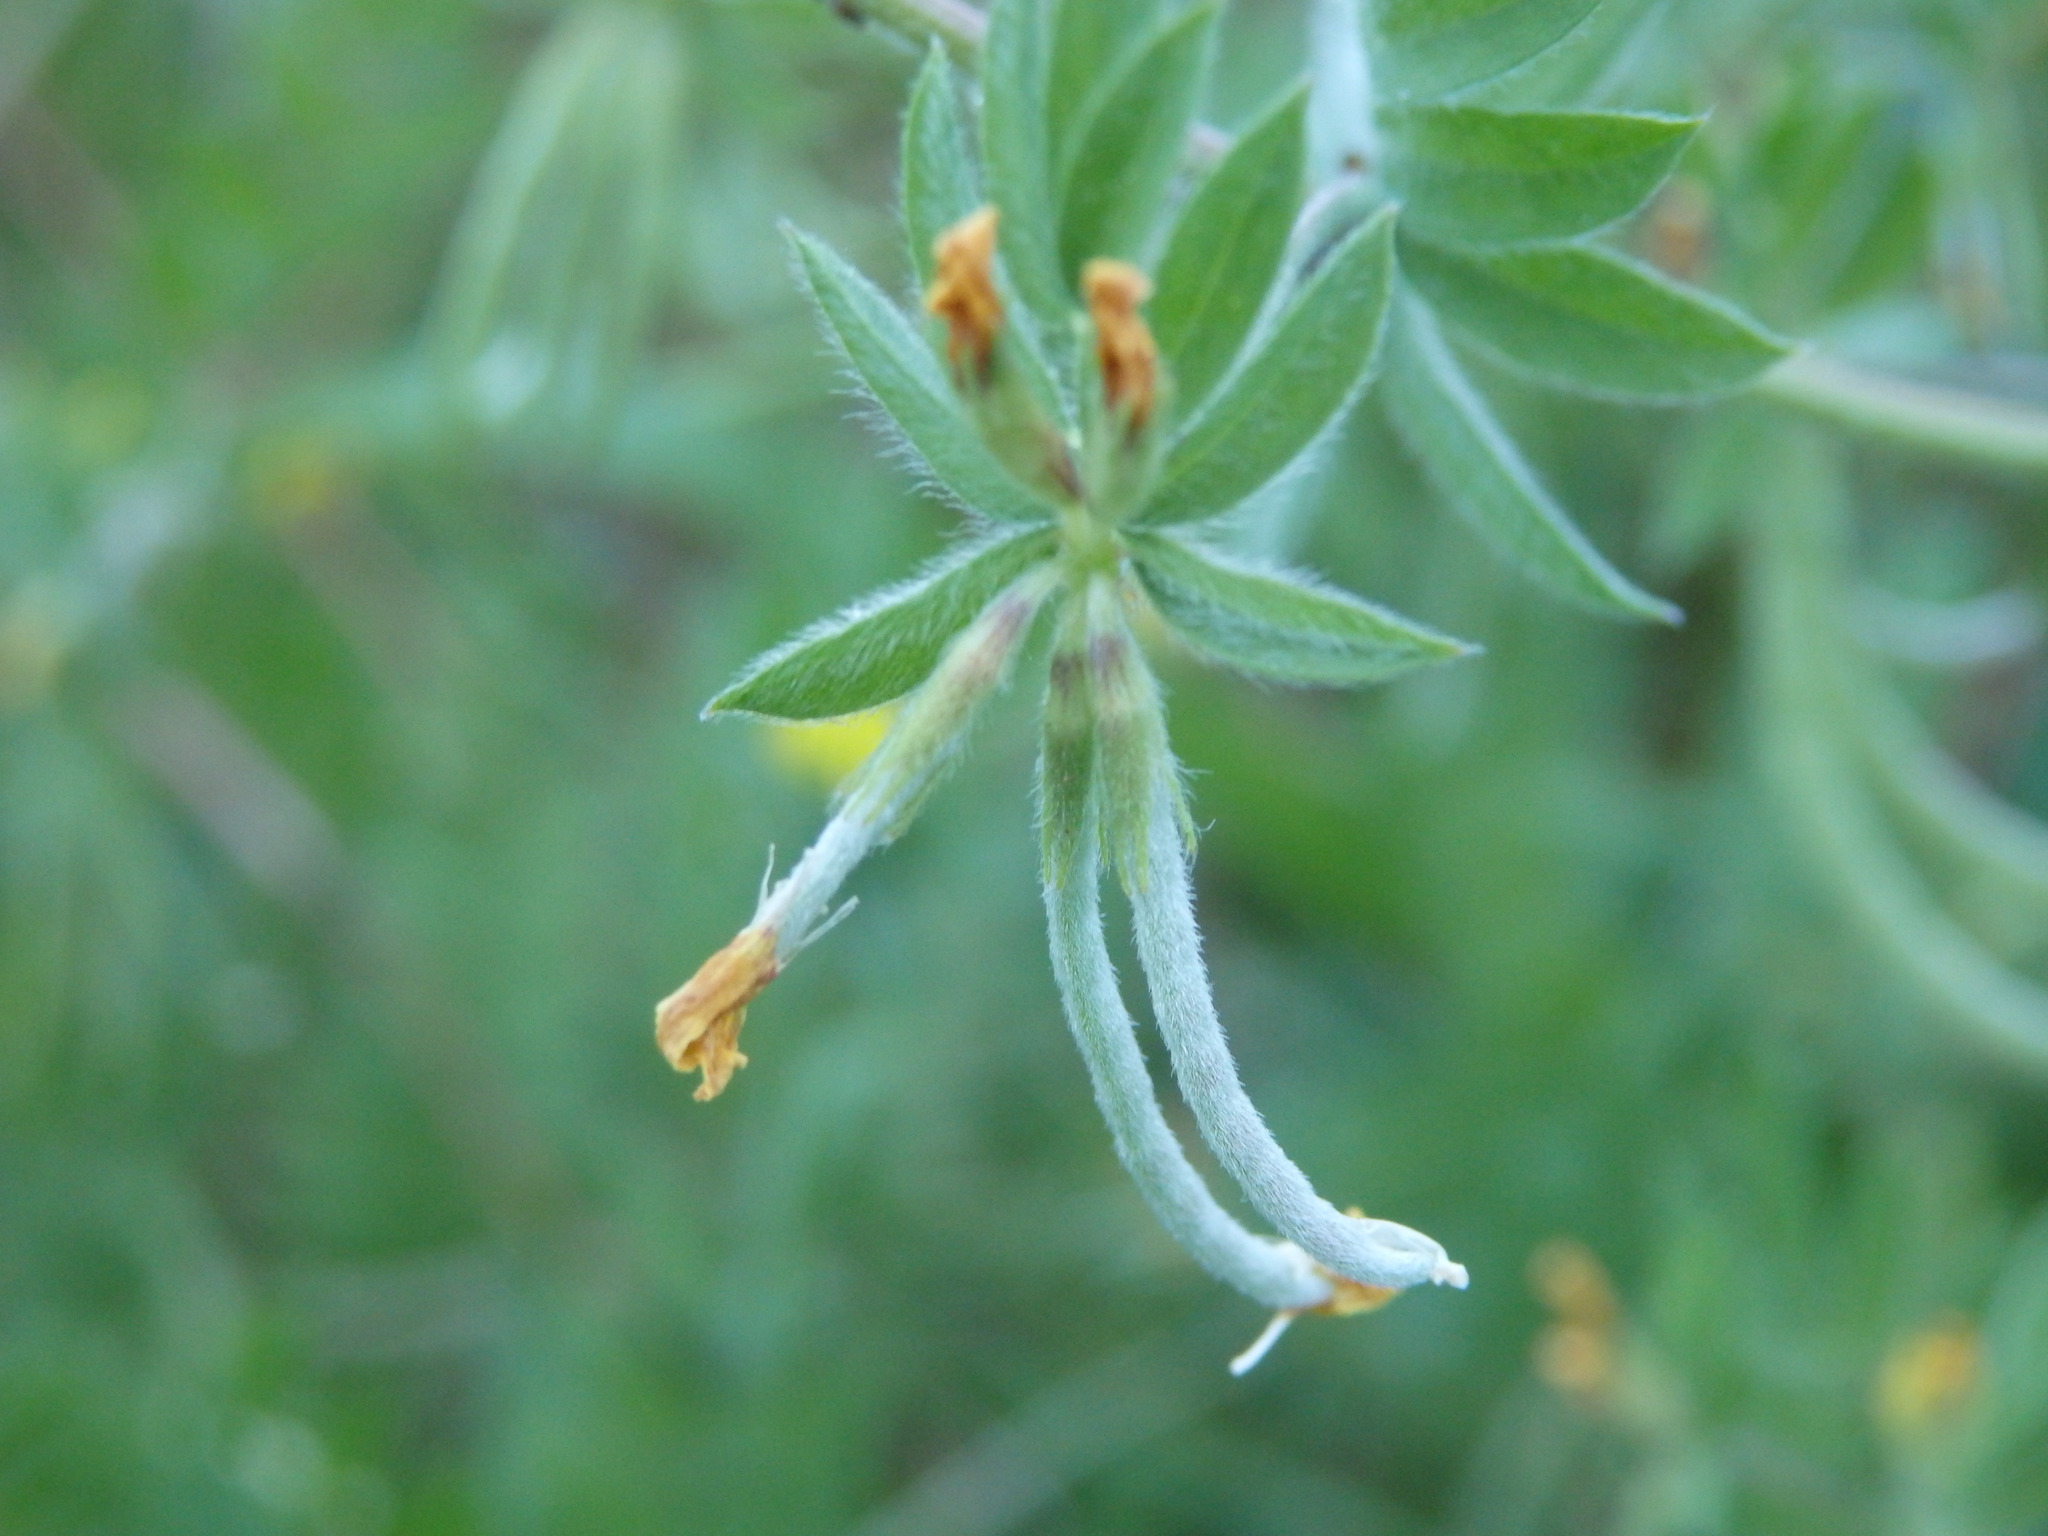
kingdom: Plantae
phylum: Tracheophyta
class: Magnoliopsida
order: Fabales
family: Fabaceae
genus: Ornithopus
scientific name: Ornithopus compressus
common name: Yellow serradella
